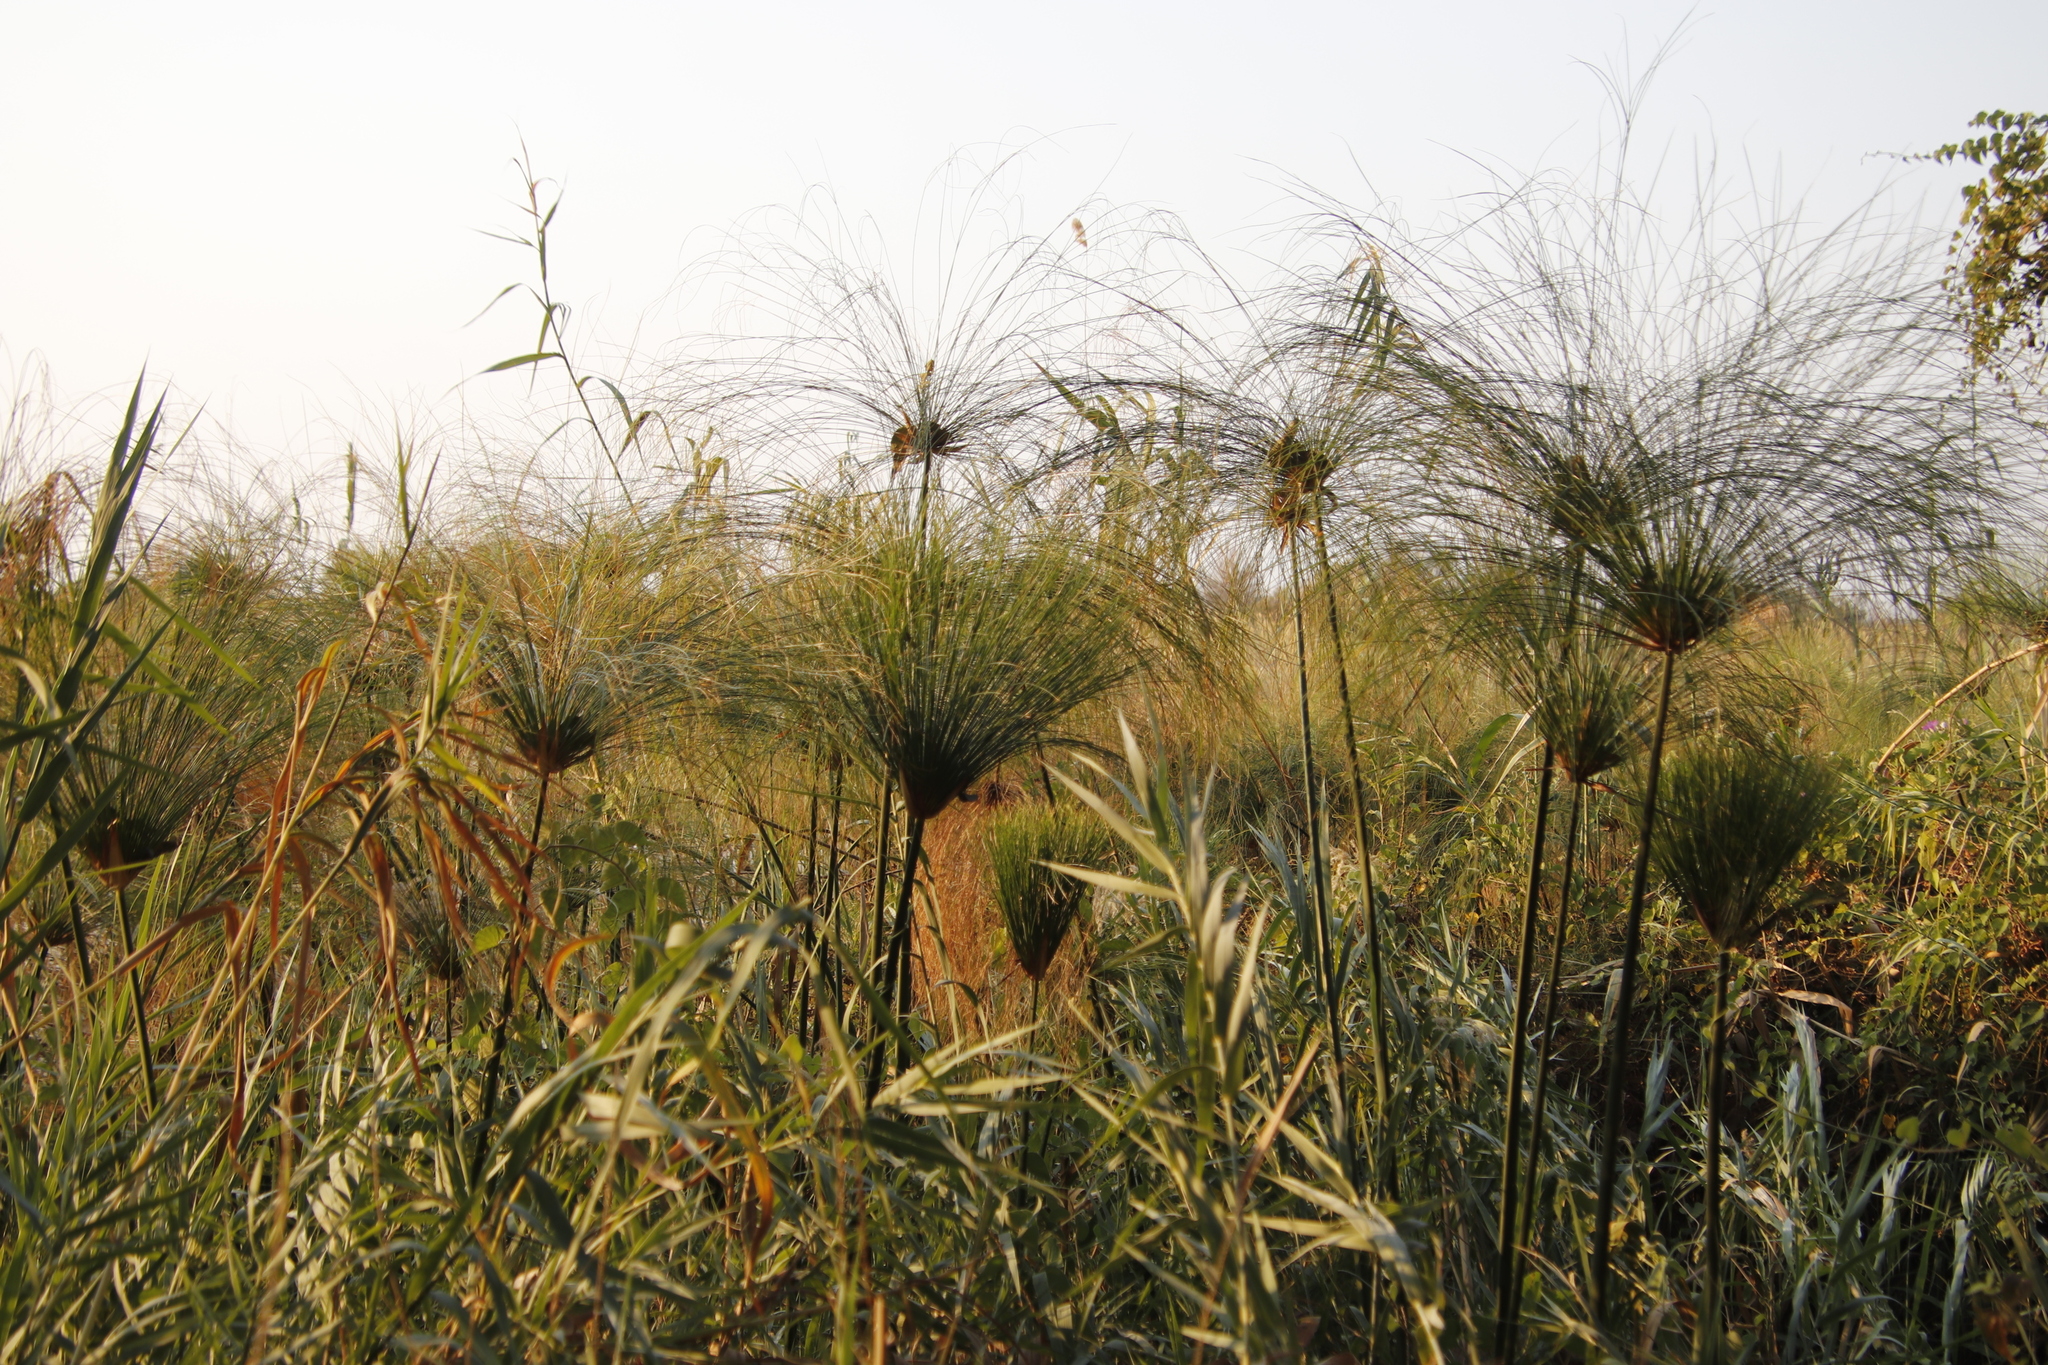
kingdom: Plantae
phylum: Tracheophyta
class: Liliopsida
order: Poales
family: Cyperaceae
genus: Cyperus
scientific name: Cyperus papyrus
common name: Papyrus
